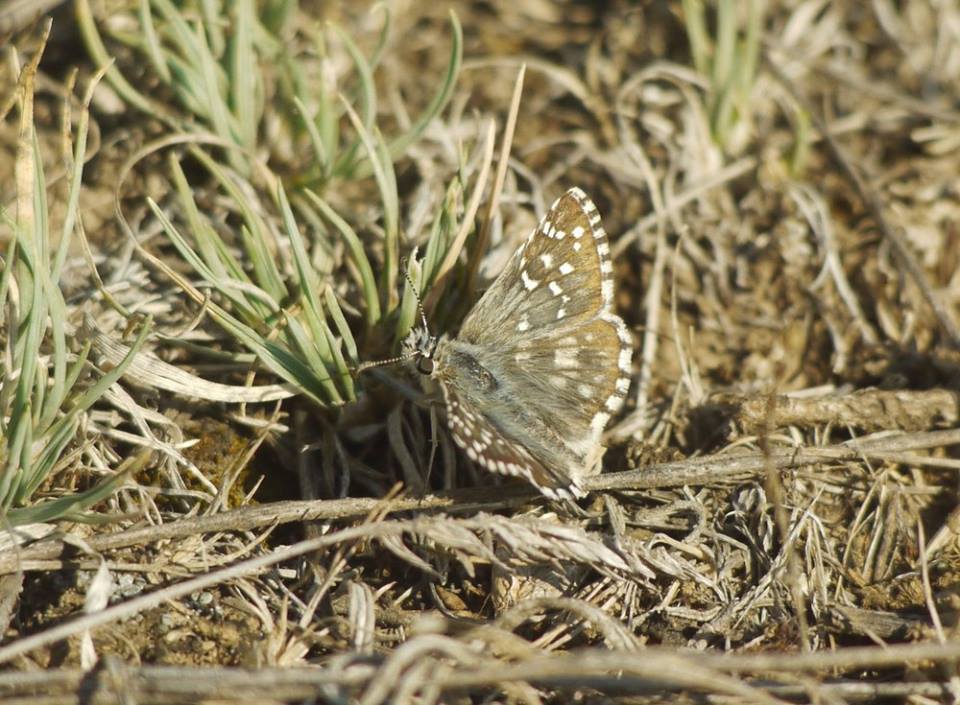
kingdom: Animalia
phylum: Arthropoda
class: Insecta
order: Lepidoptera
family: Hesperiidae
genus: Pyrgus
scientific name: Pyrgus armoricanus
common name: Oberthür's grizzled skipper
